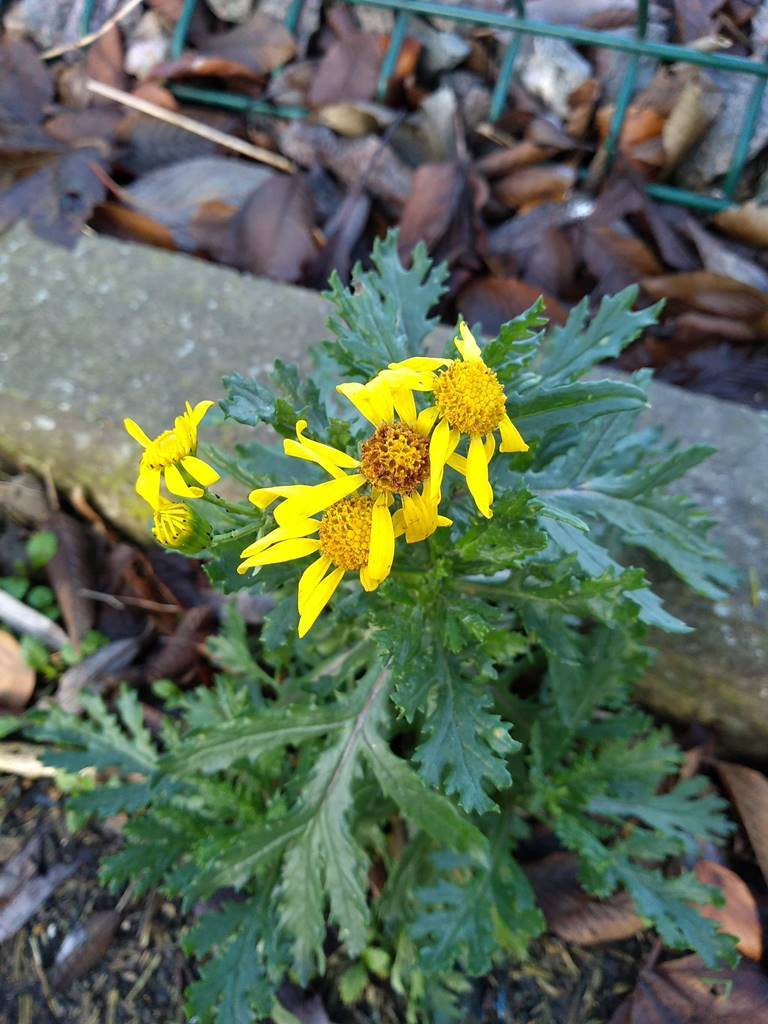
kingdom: Plantae
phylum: Tracheophyta
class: Magnoliopsida
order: Asterales
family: Asteraceae
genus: Senecio
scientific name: Senecio squalidus
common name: Oxford ragwort
